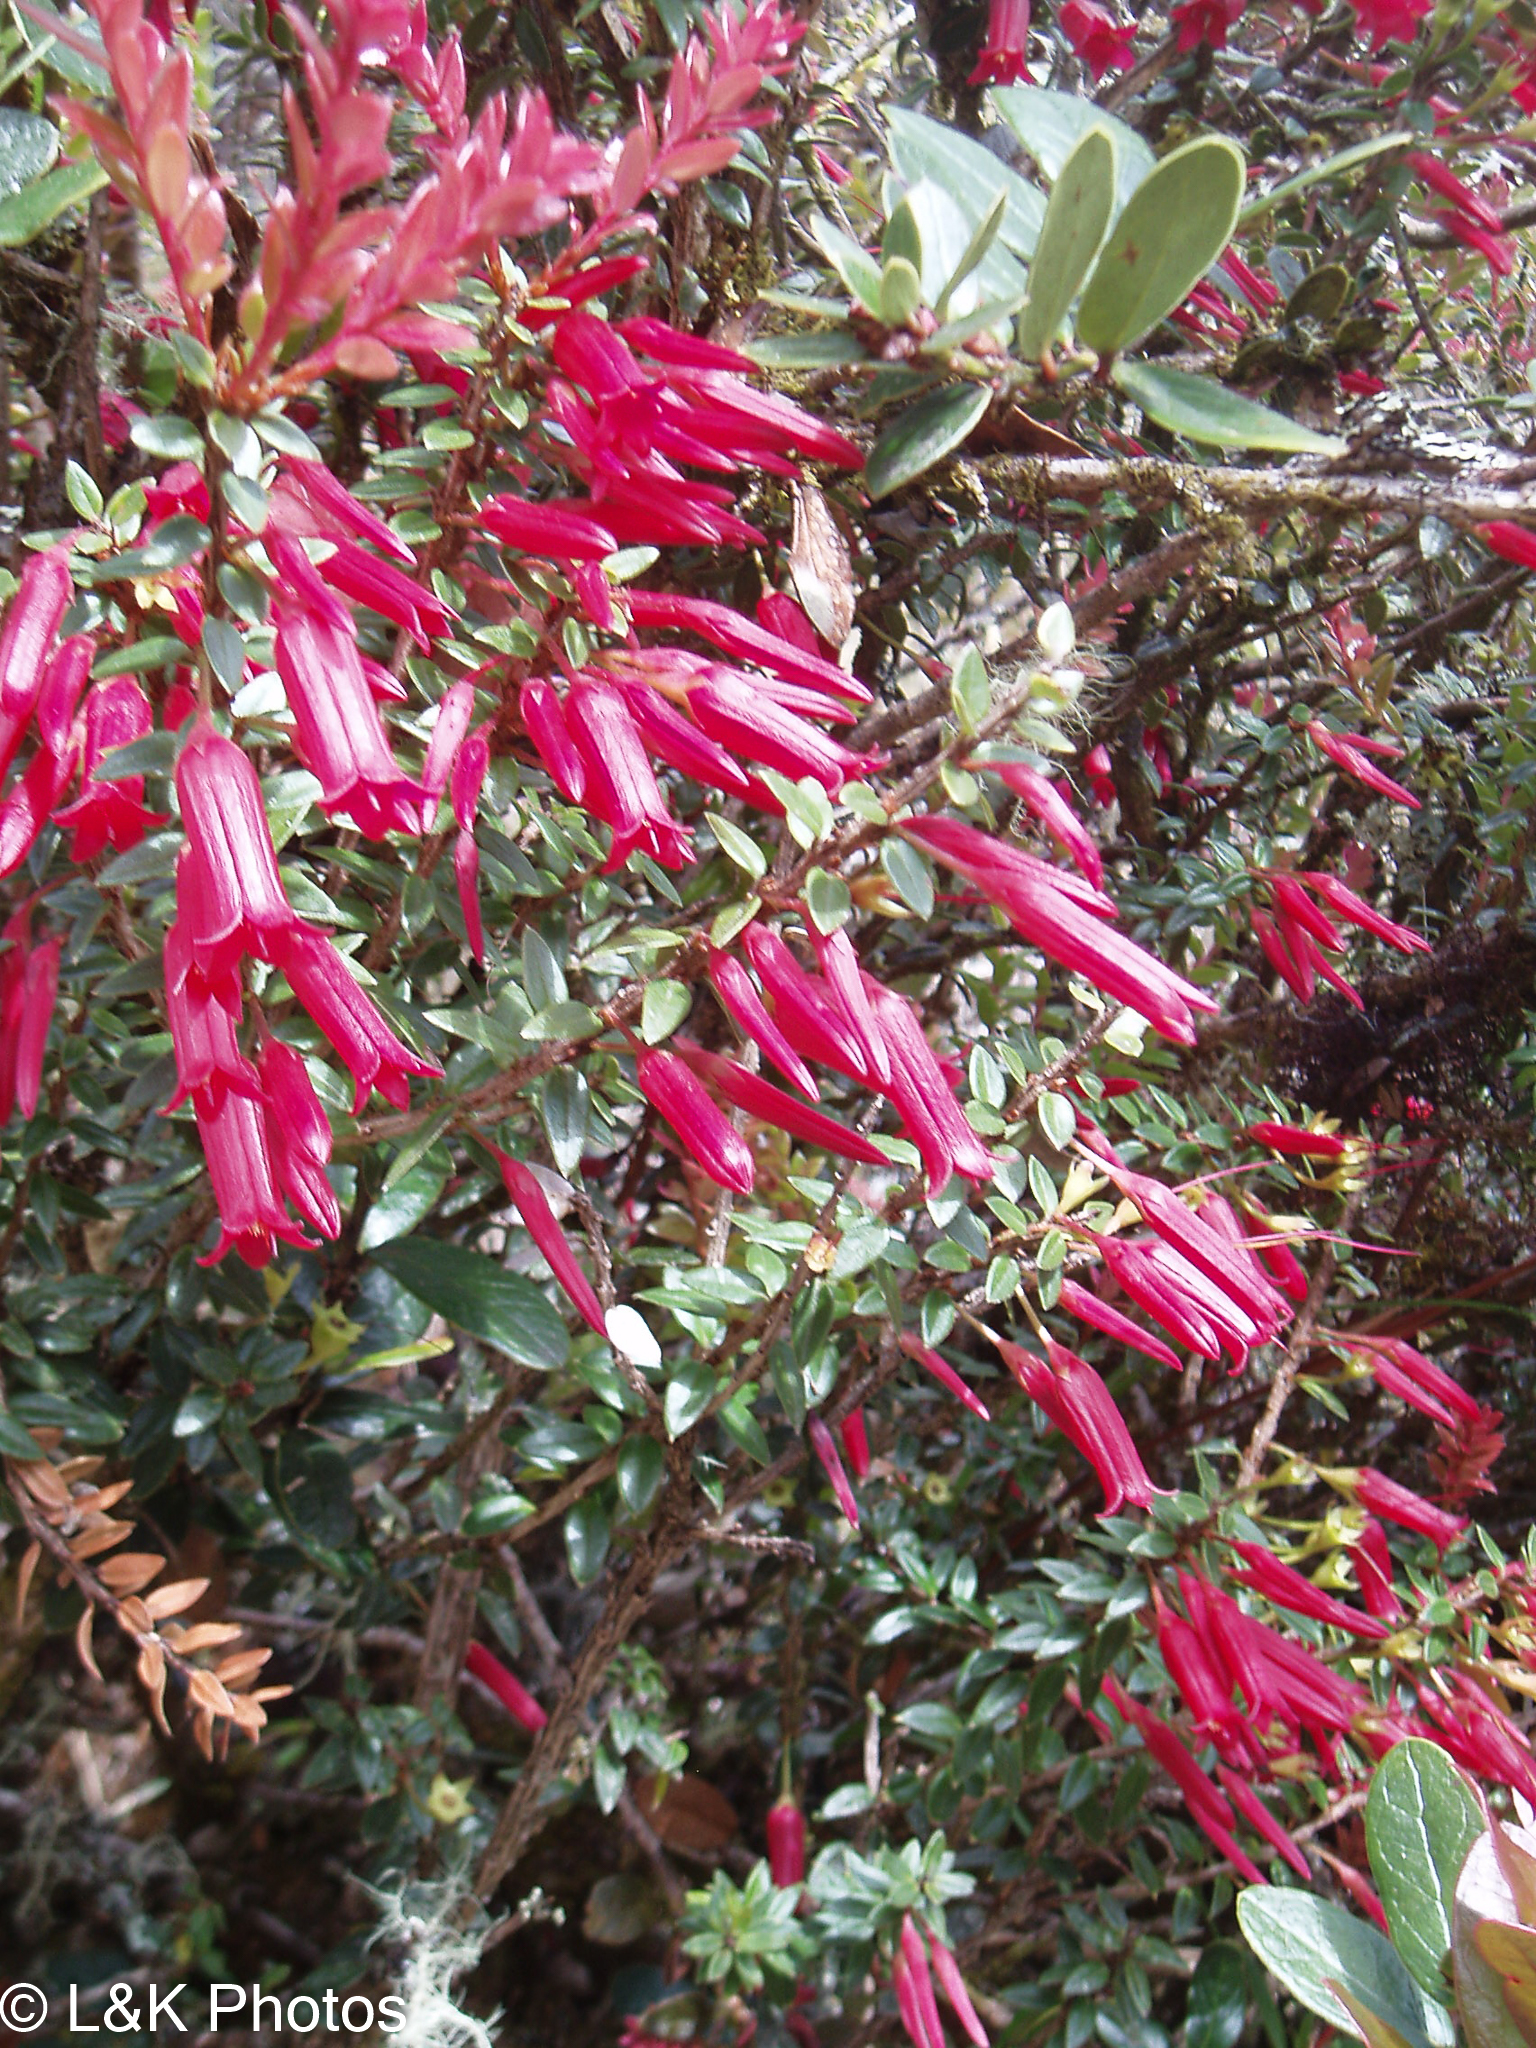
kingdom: Plantae
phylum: Tracheophyta
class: Magnoliopsida
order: Ericales
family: Ericaceae
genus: Demosthenesia
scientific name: Demosthenesia mandonii
